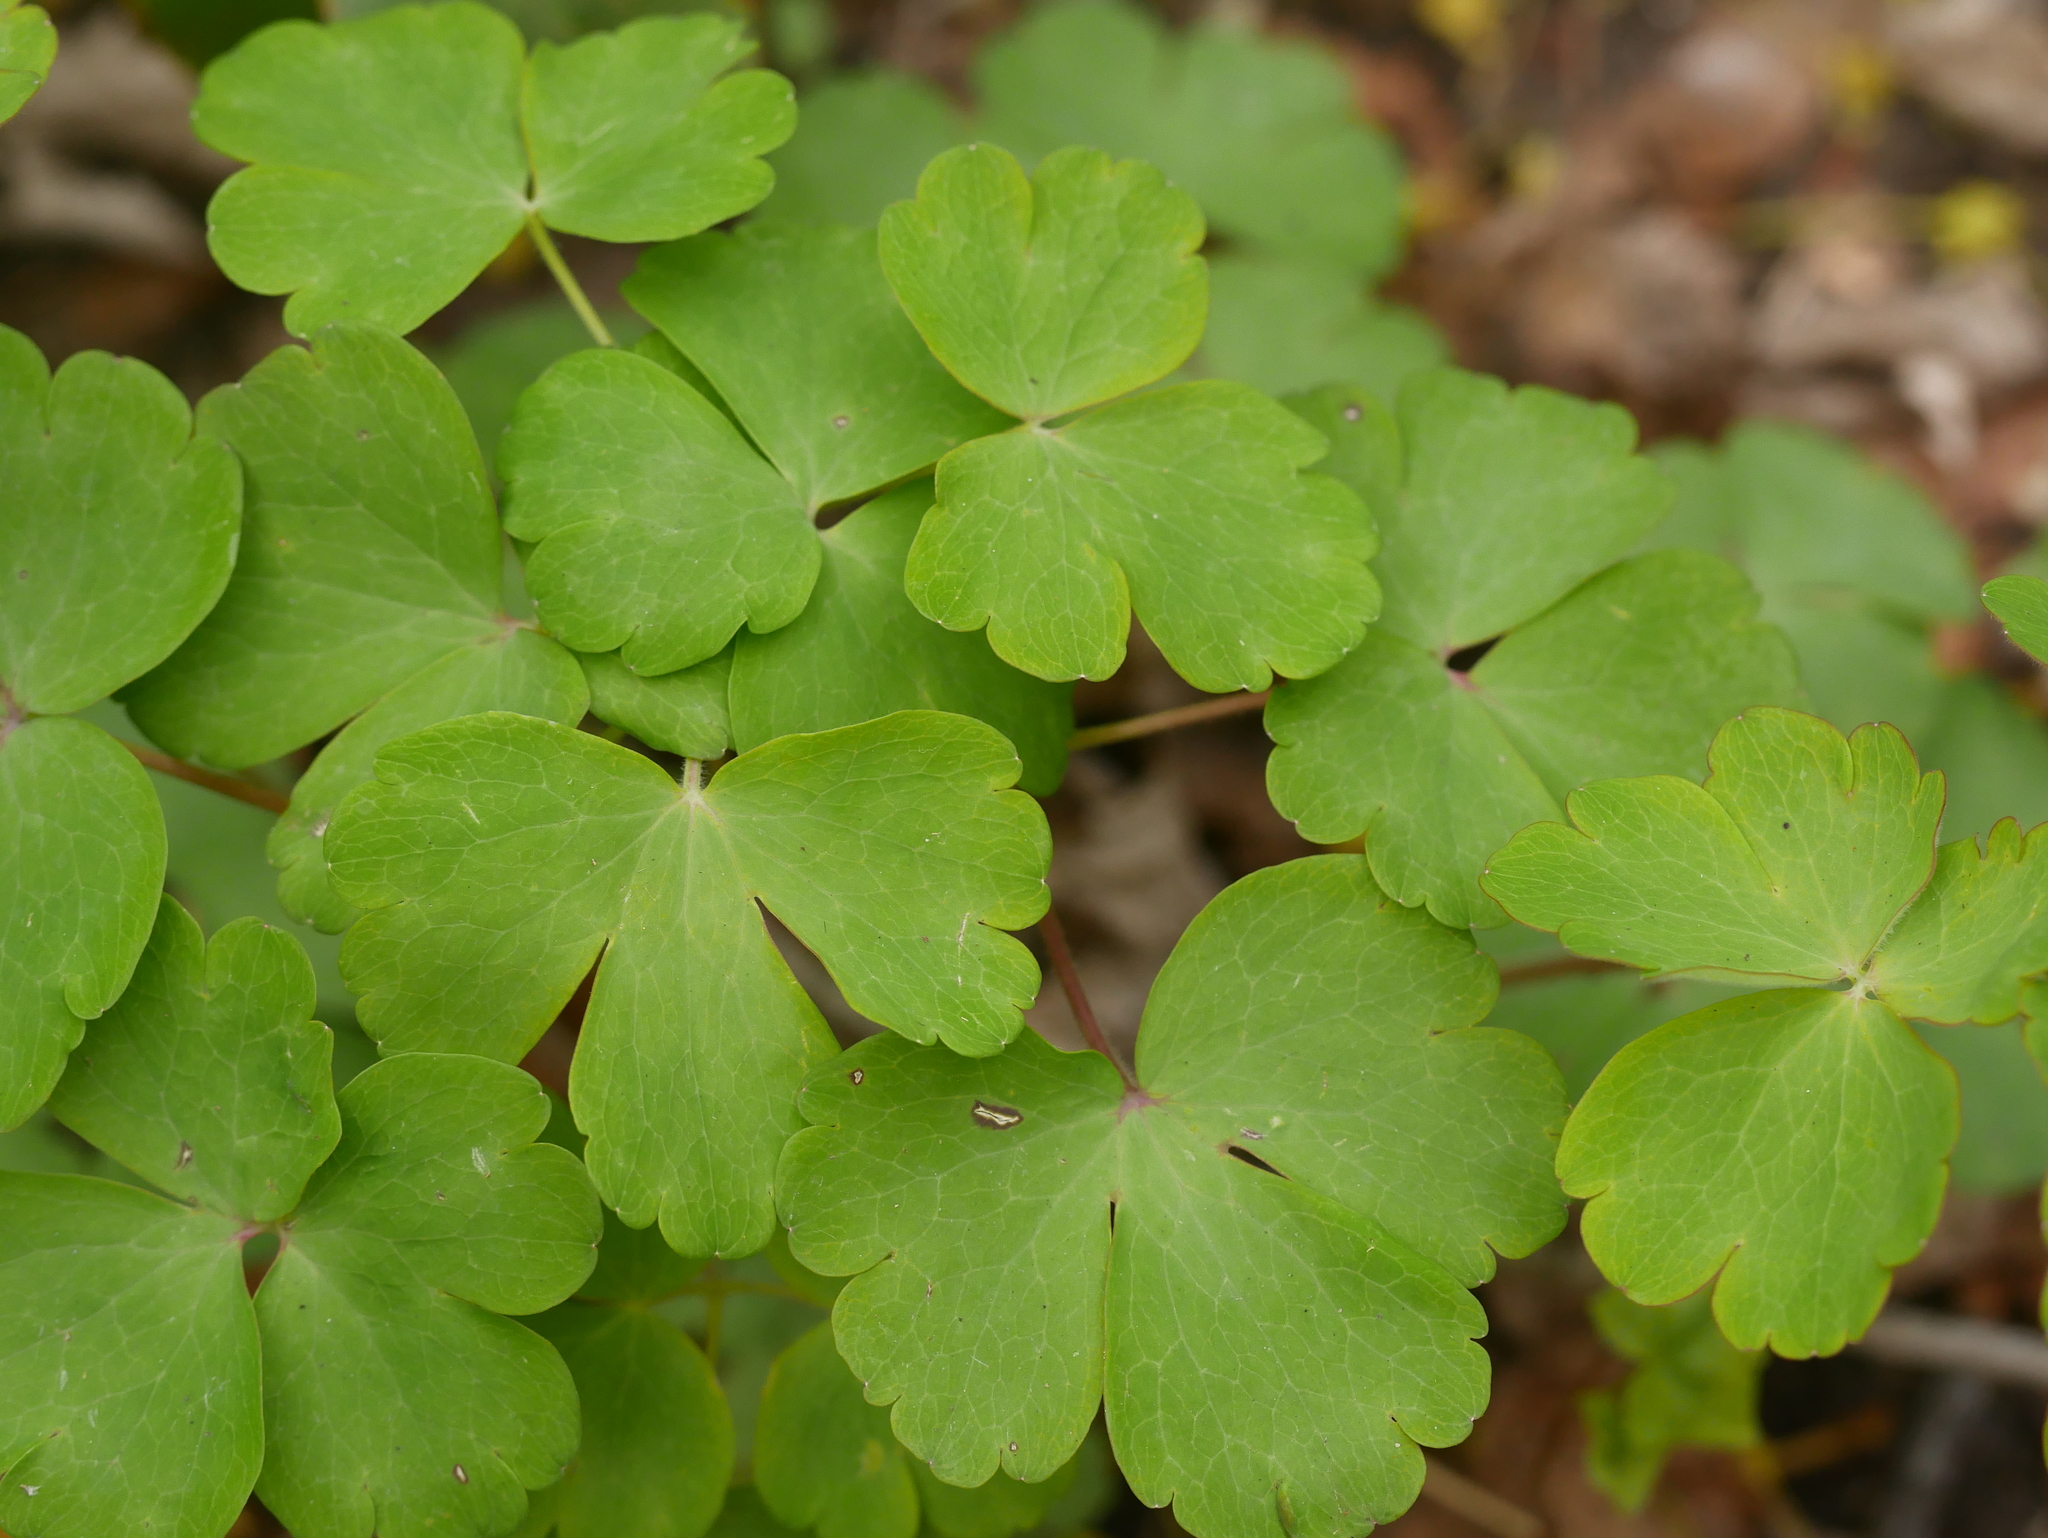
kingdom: Plantae
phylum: Tracheophyta
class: Magnoliopsida
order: Ranunculales
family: Ranunculaceae
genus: Aquilegia
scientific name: Aquilegia vulgaris
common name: Columbine
